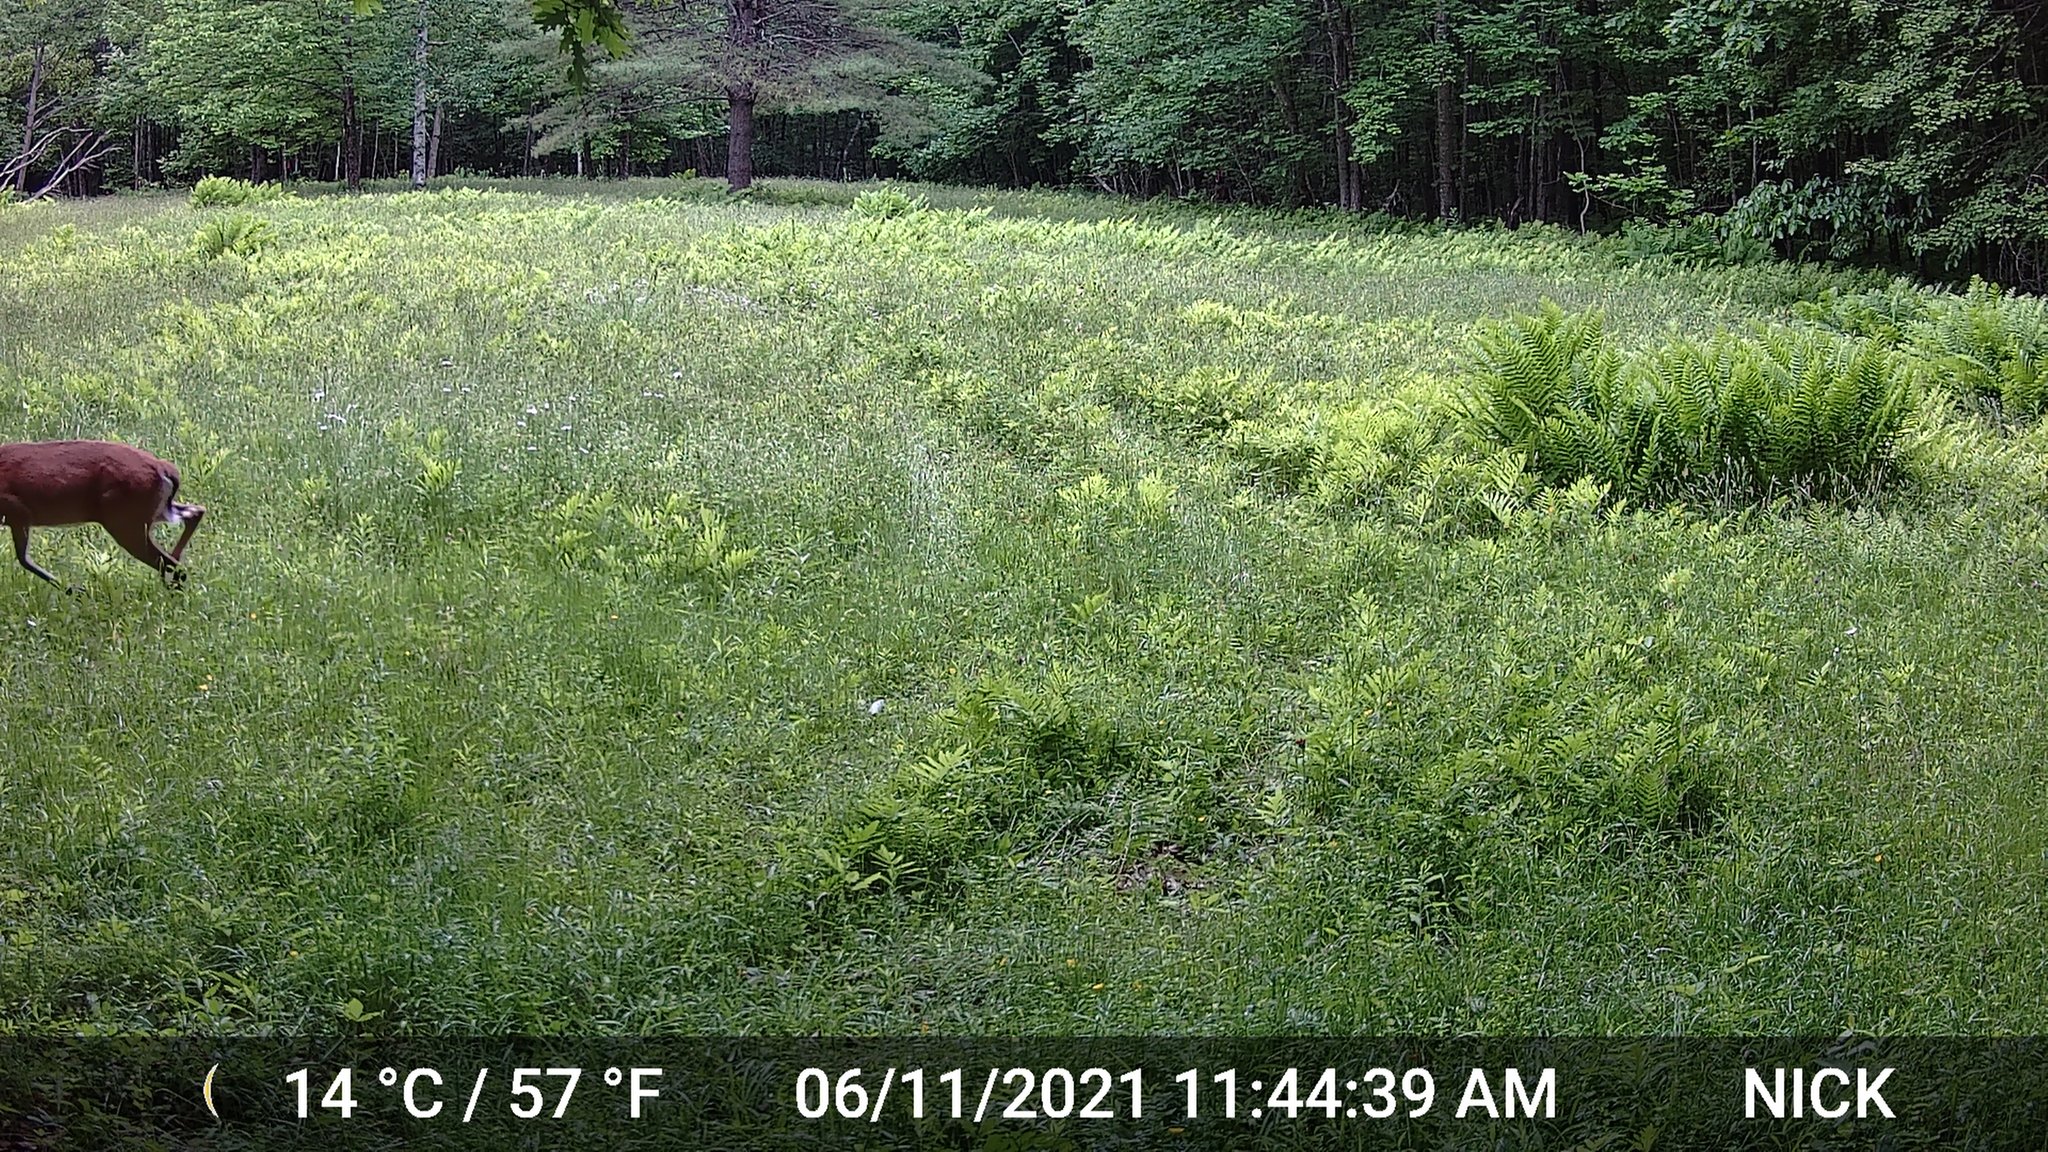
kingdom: Animalia
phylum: Chordata
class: Mammalia
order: Artiodactyla
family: Cervidae
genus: Odocoileus
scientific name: Odocoileus virginianus
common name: White-tailed deer
